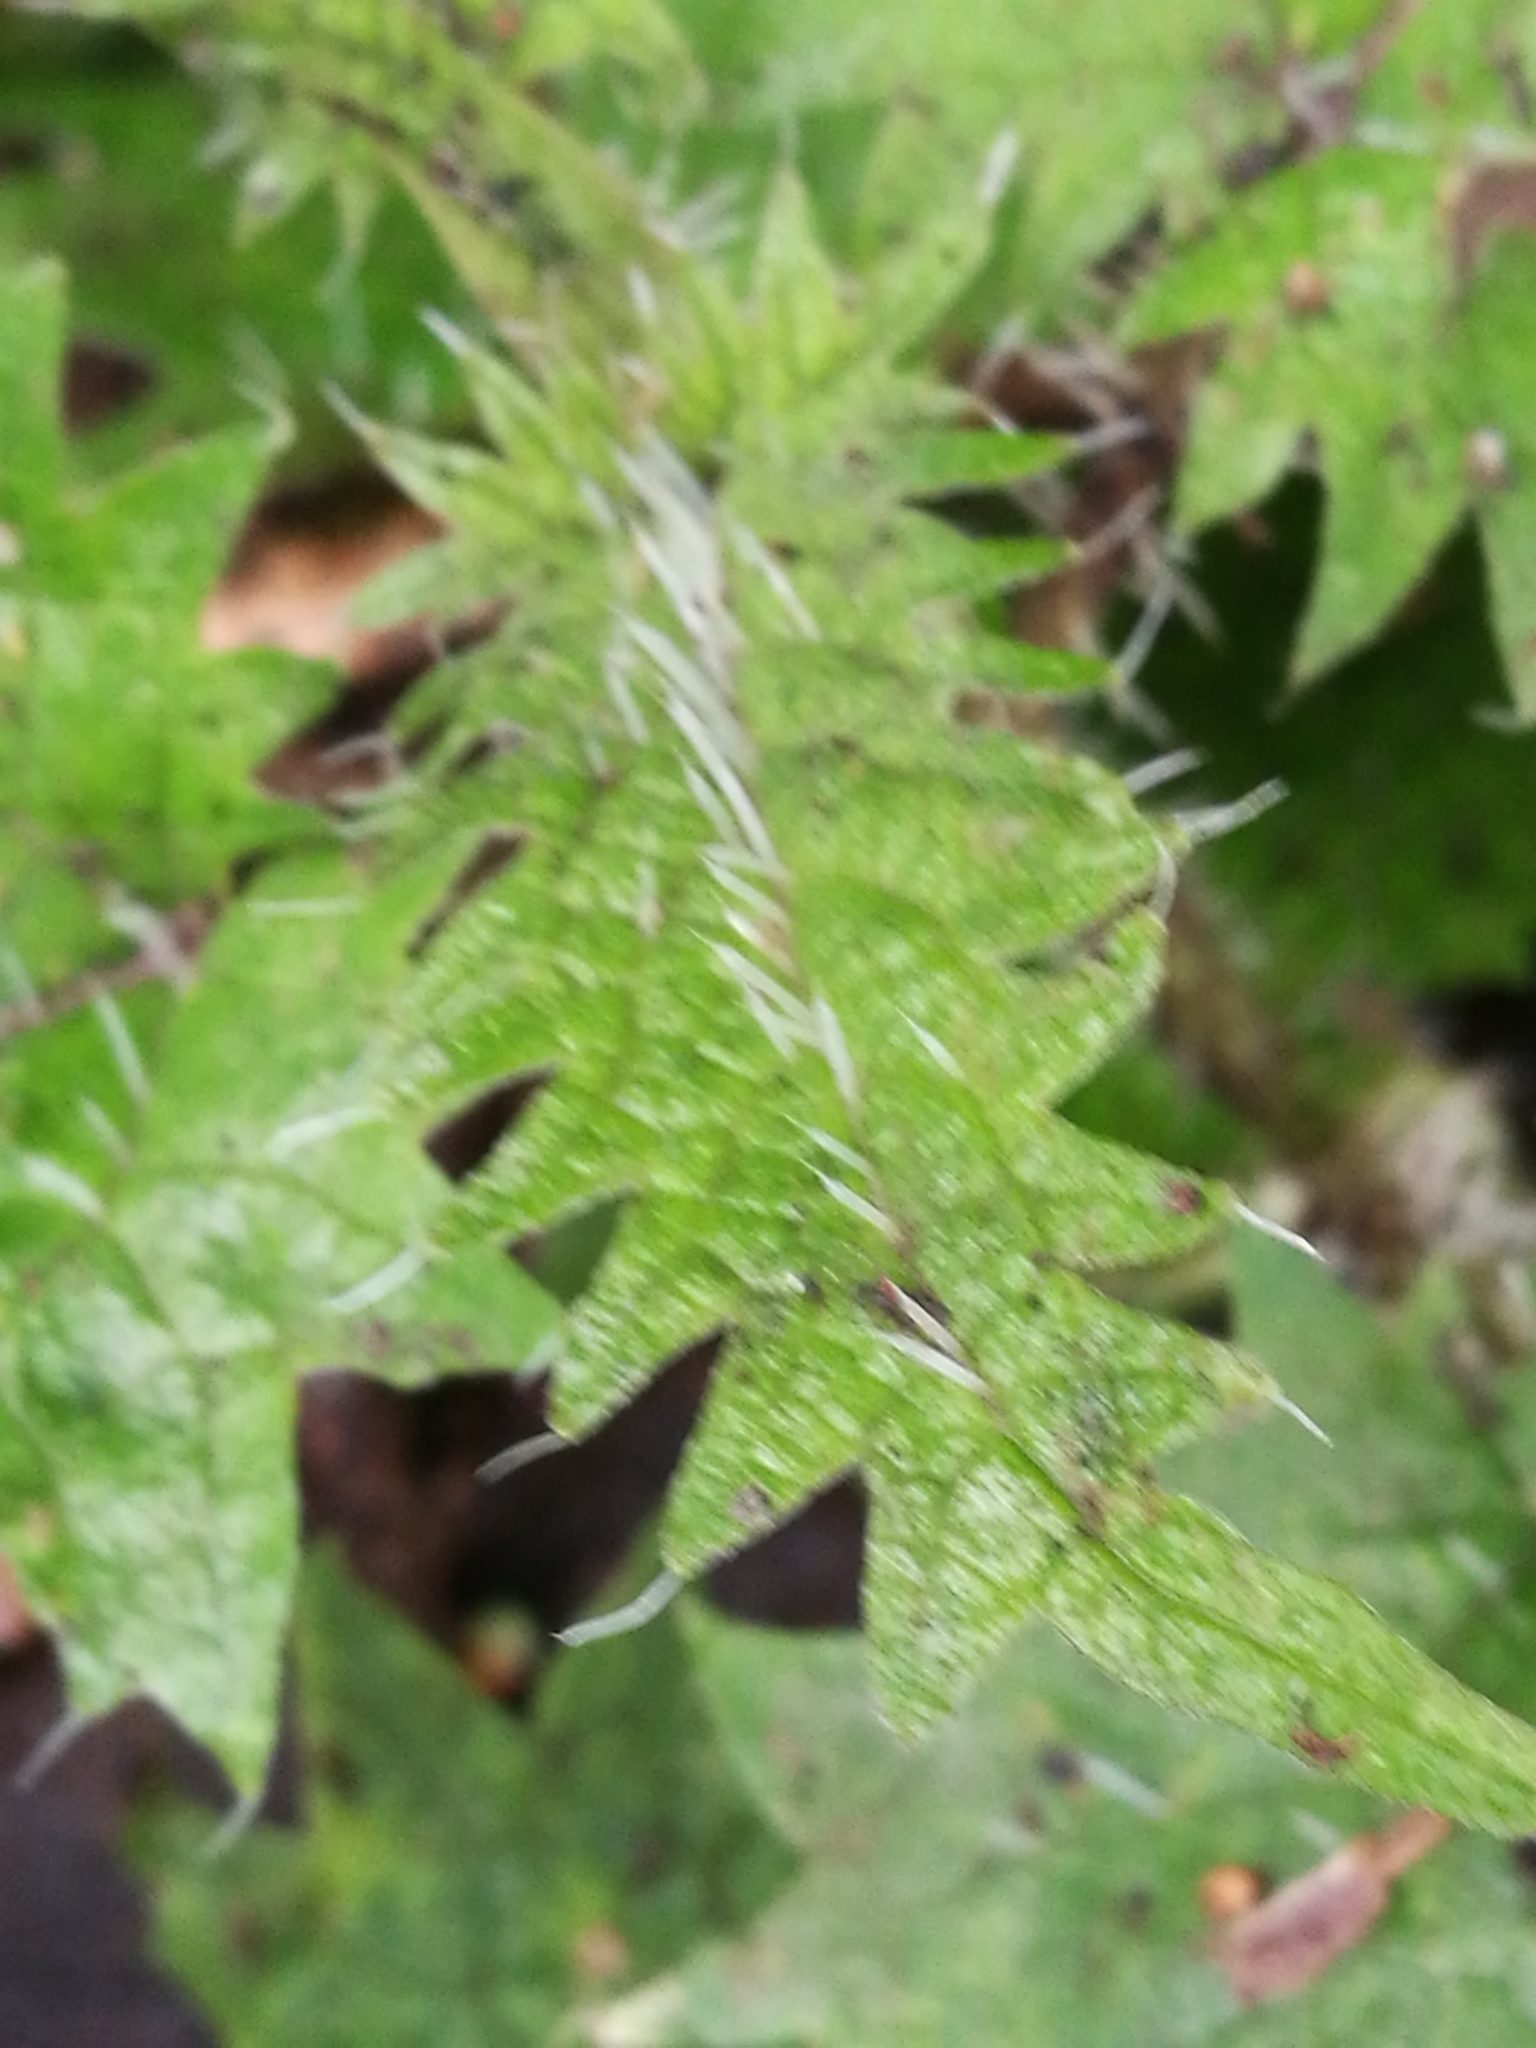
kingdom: Plantae
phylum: Tracheophyta
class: Magnoliopsida
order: Rosales
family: Urticaceae
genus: Urtica
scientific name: Urtica ferox
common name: Tree nettle
